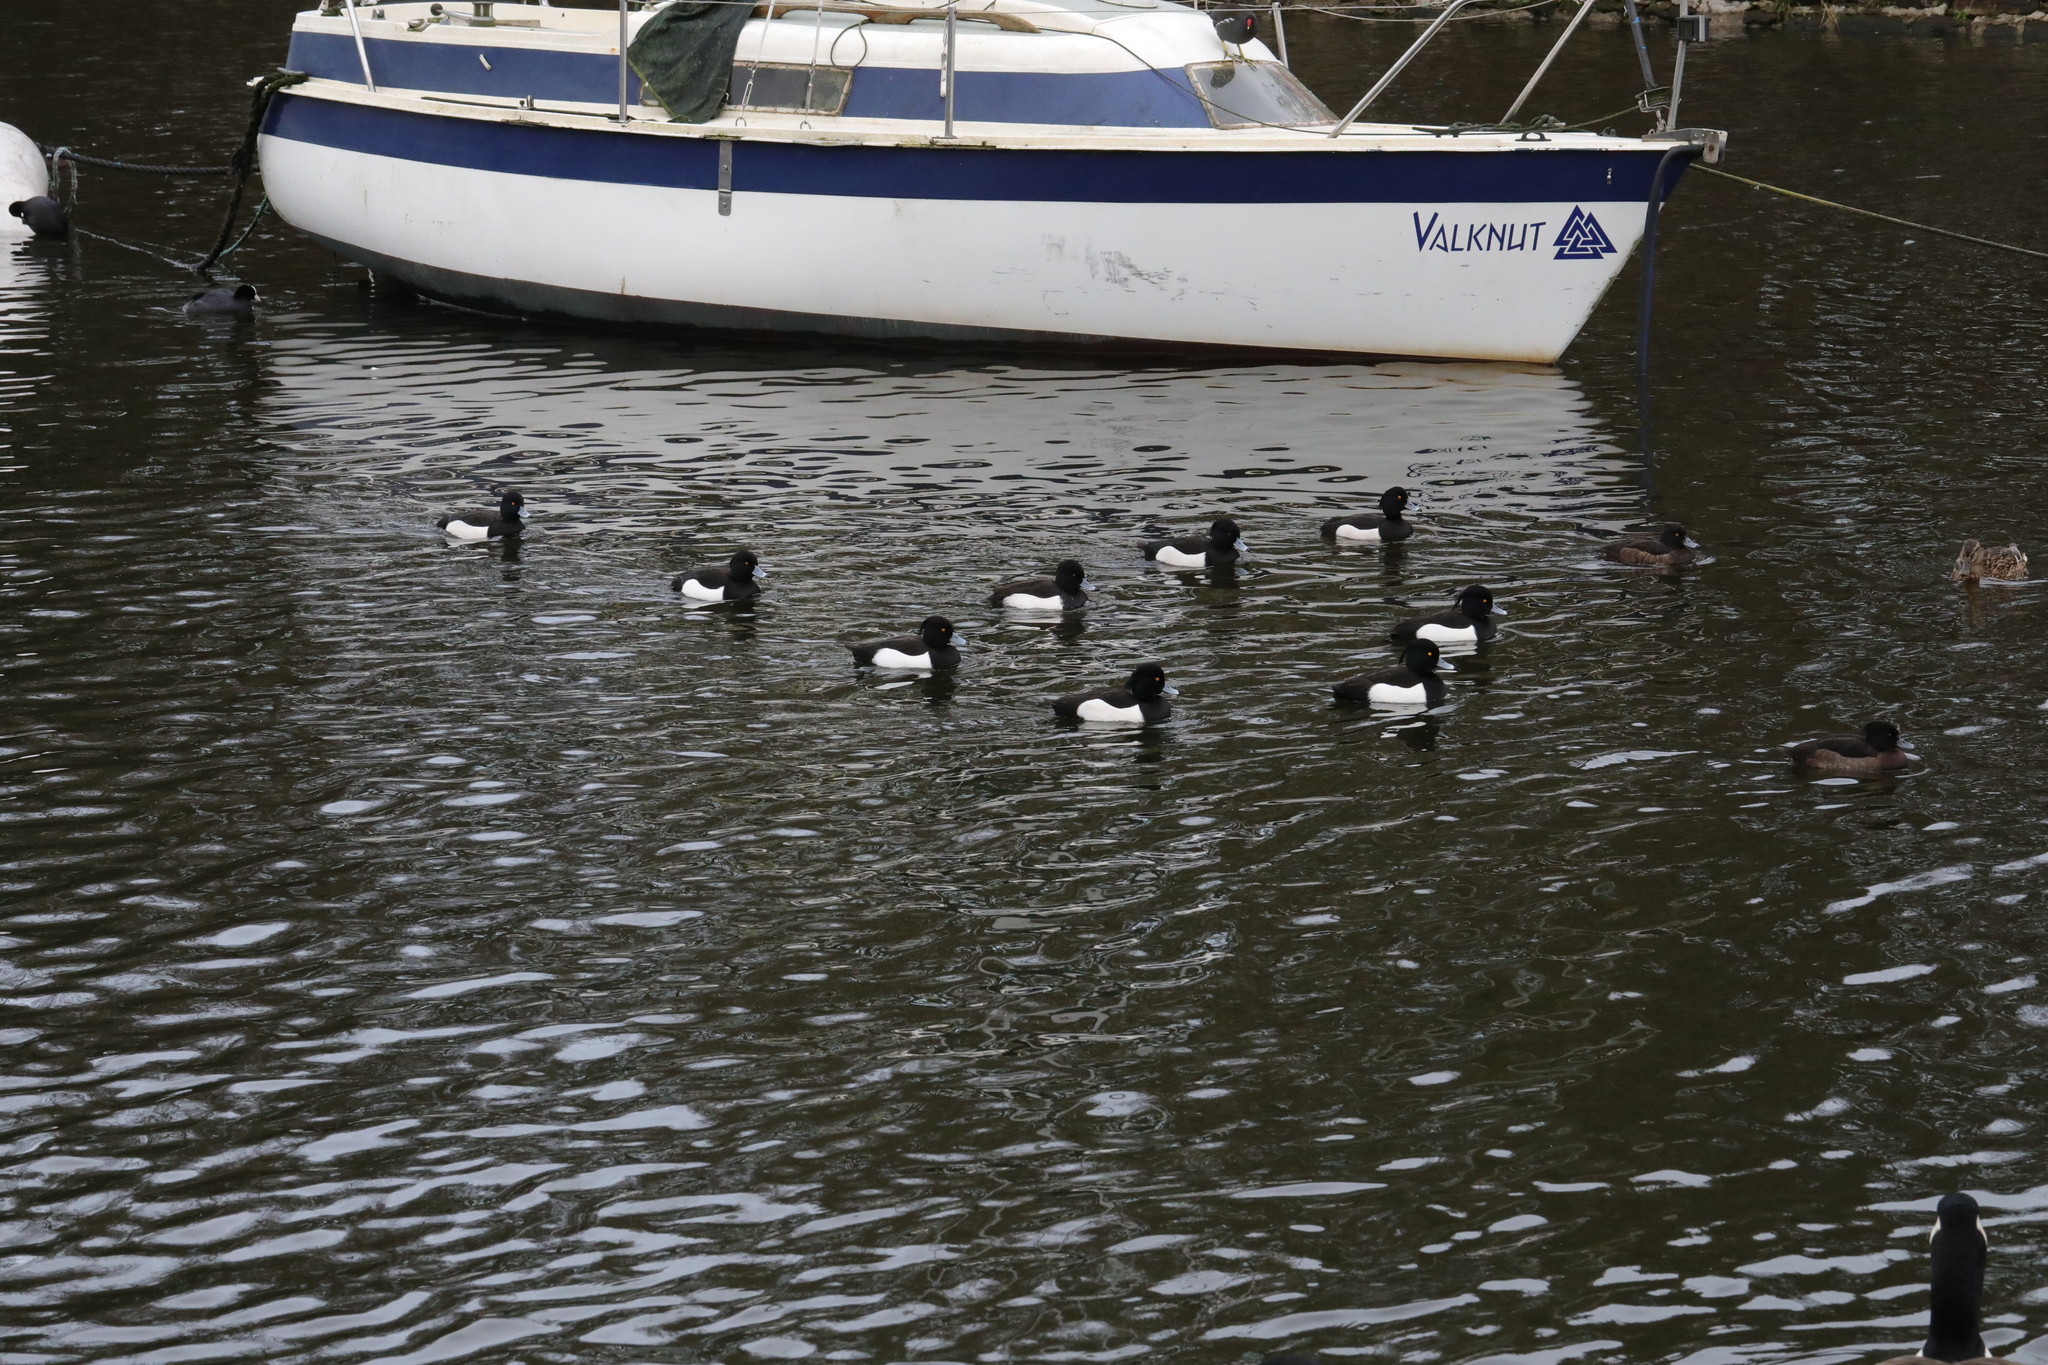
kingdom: Animalia
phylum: Chordata
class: Aves
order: Anseriformes
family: Anatidae
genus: Aythya
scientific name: Aythya fuligula
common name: Tufted duck
